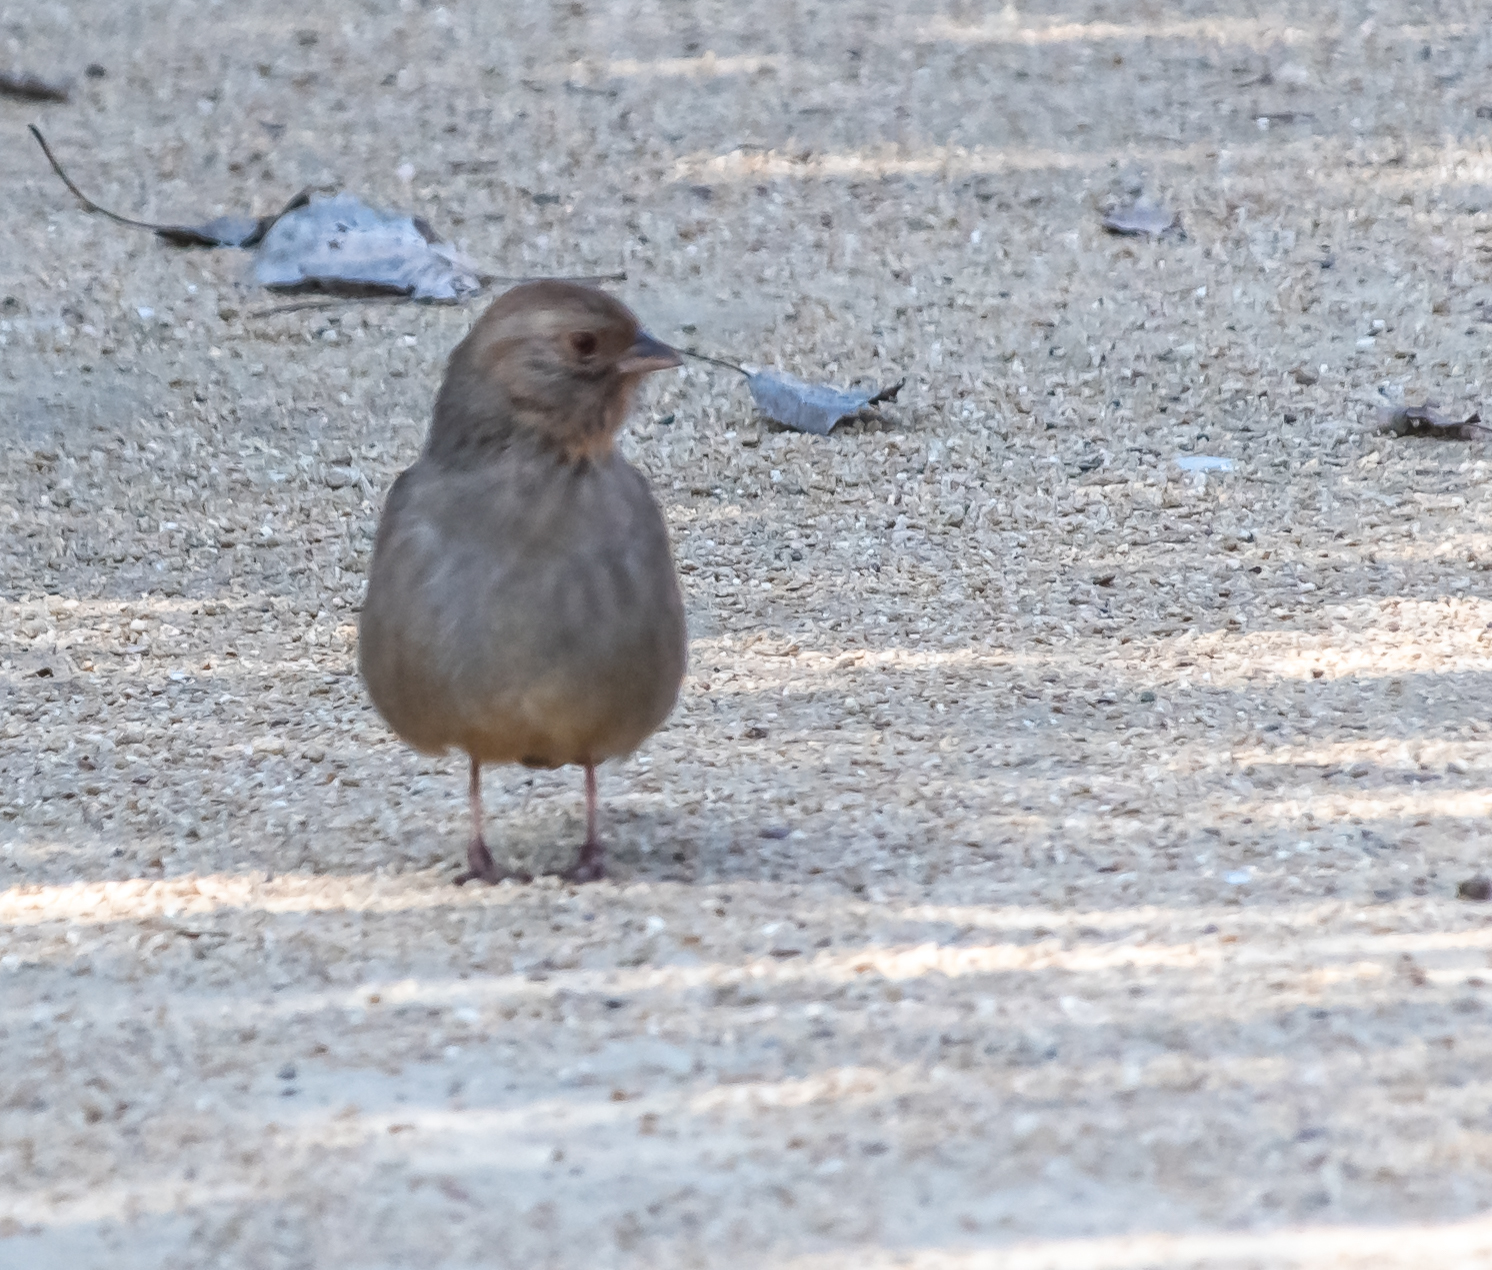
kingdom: Animalia
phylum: Chordata
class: Aves
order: Passeriformes
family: Passerellidae
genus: Melozone
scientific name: Melozone crissalis
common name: California towhee
